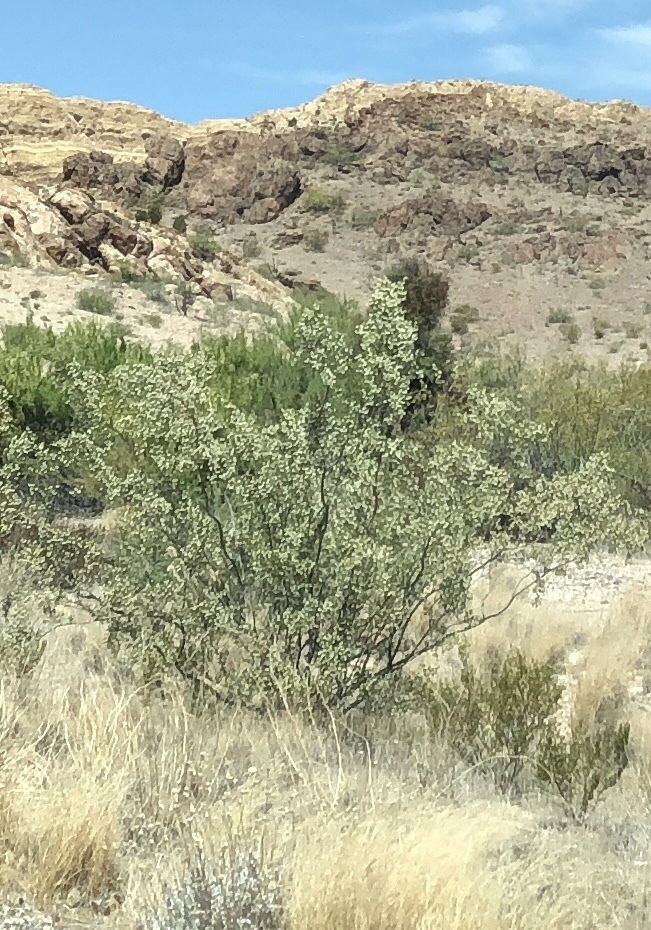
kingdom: Plantae
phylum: Tracheophyta
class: Magnoliopsida
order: Zygophyllales
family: Zygophyllaceae
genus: Larrea
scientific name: Larrea tridentata
